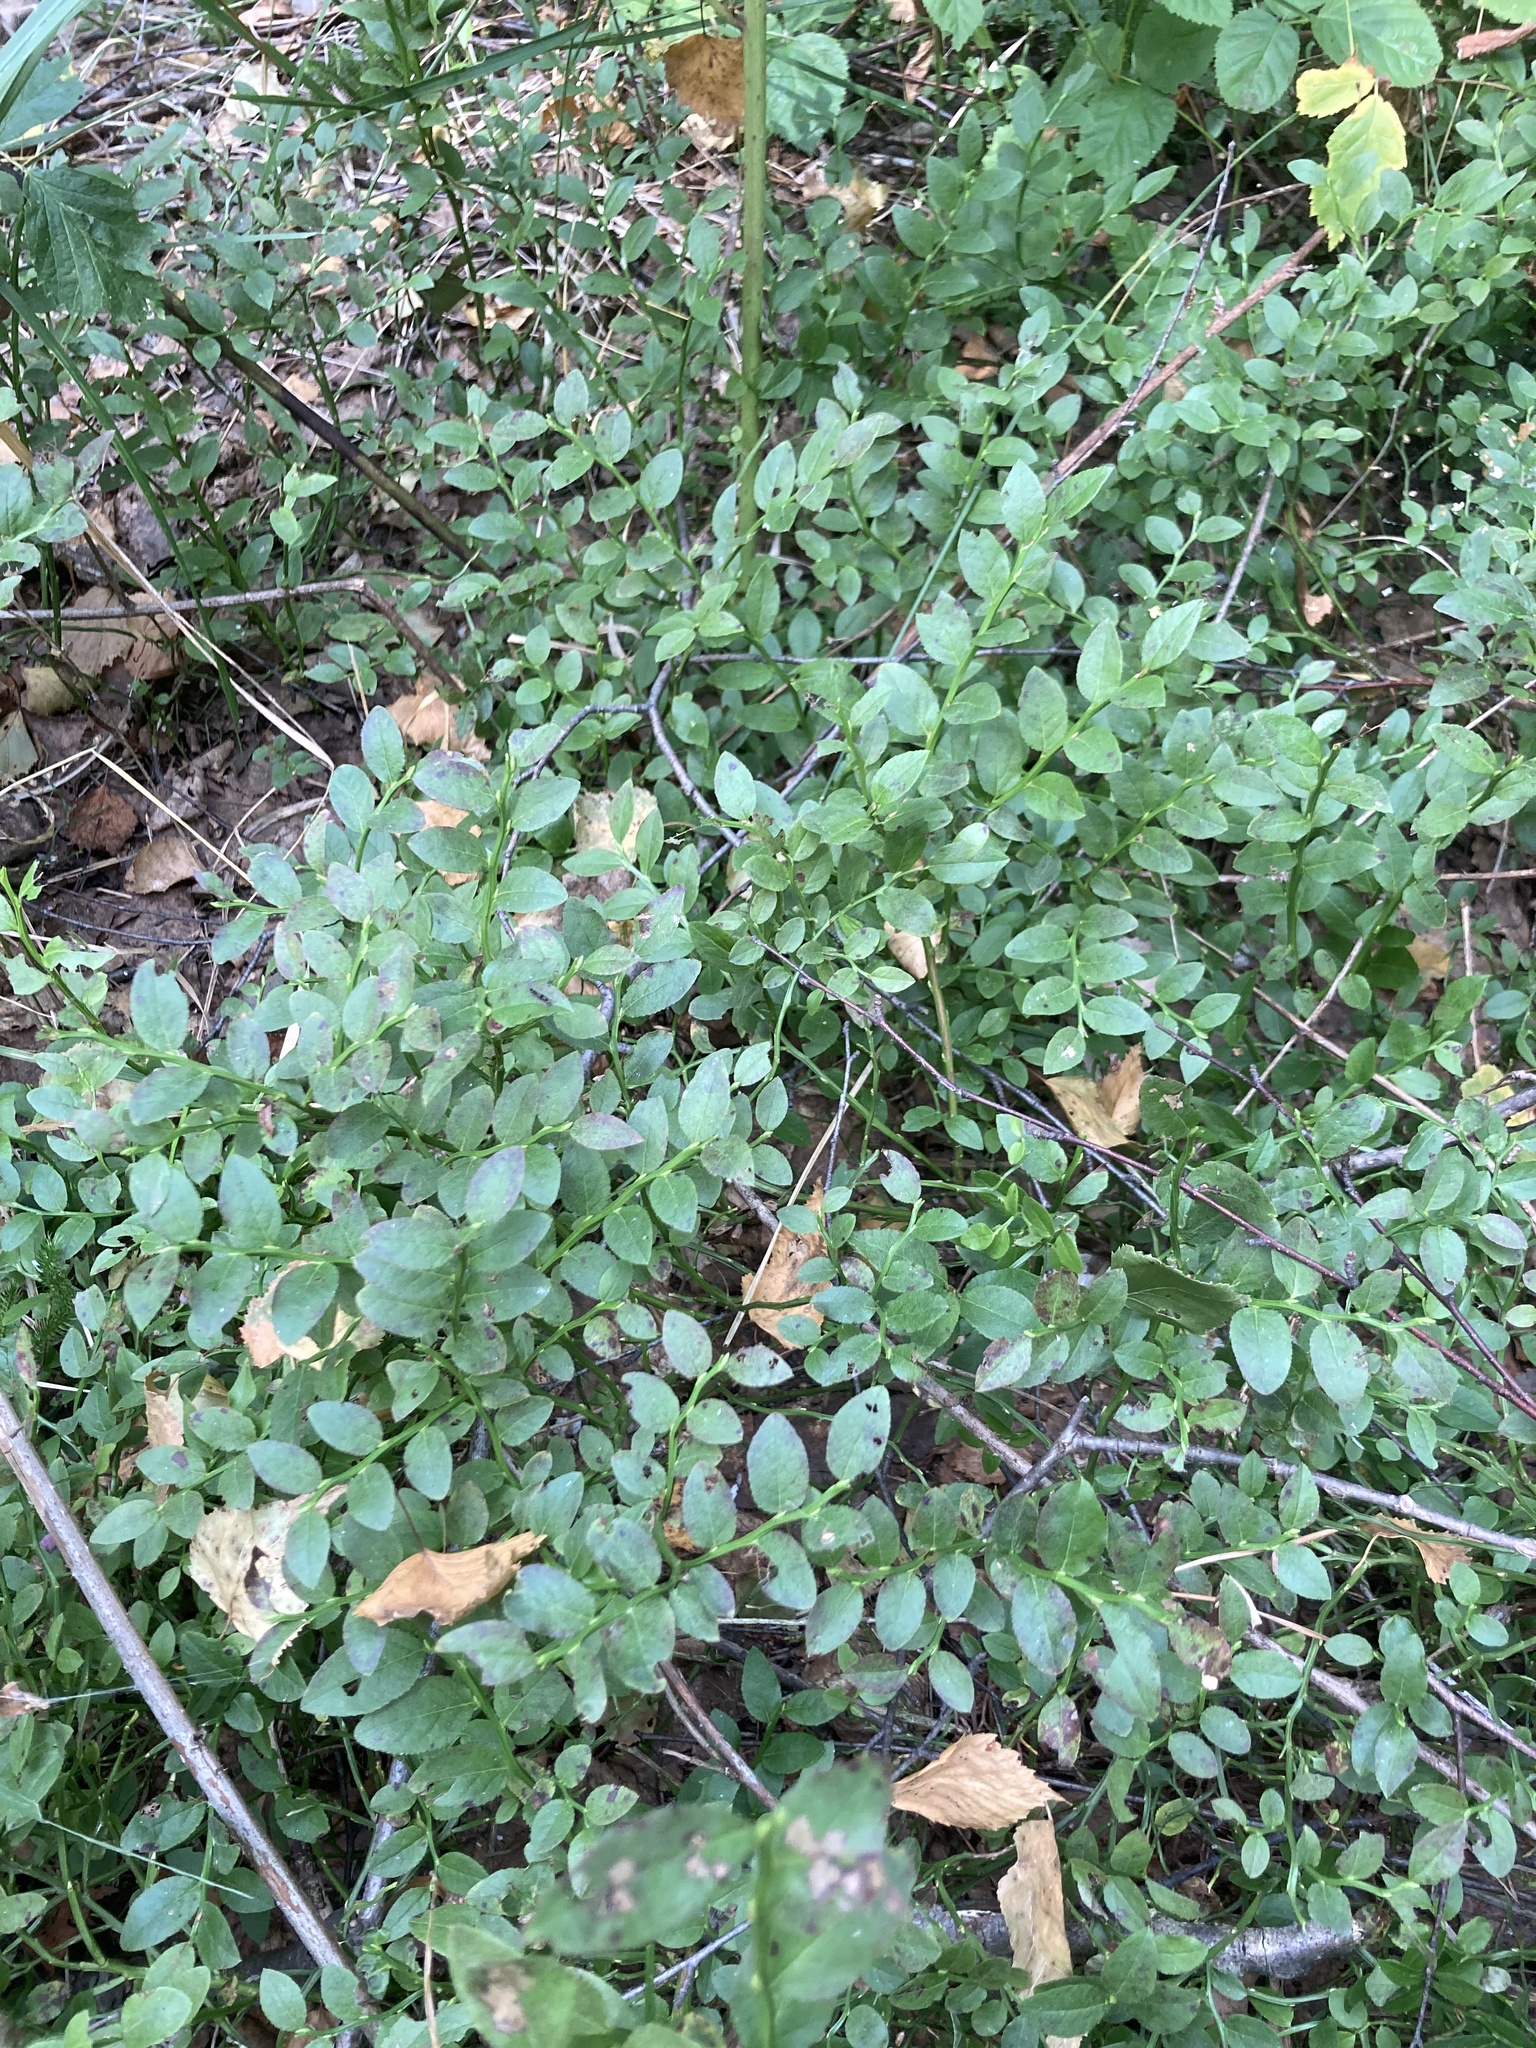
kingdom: Plantae
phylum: Tracheophyta
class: Magnoliopsida
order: Ericales
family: Ericaceae
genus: Vaccinium
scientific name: Vaccinium myrtillus
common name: Bilberry
